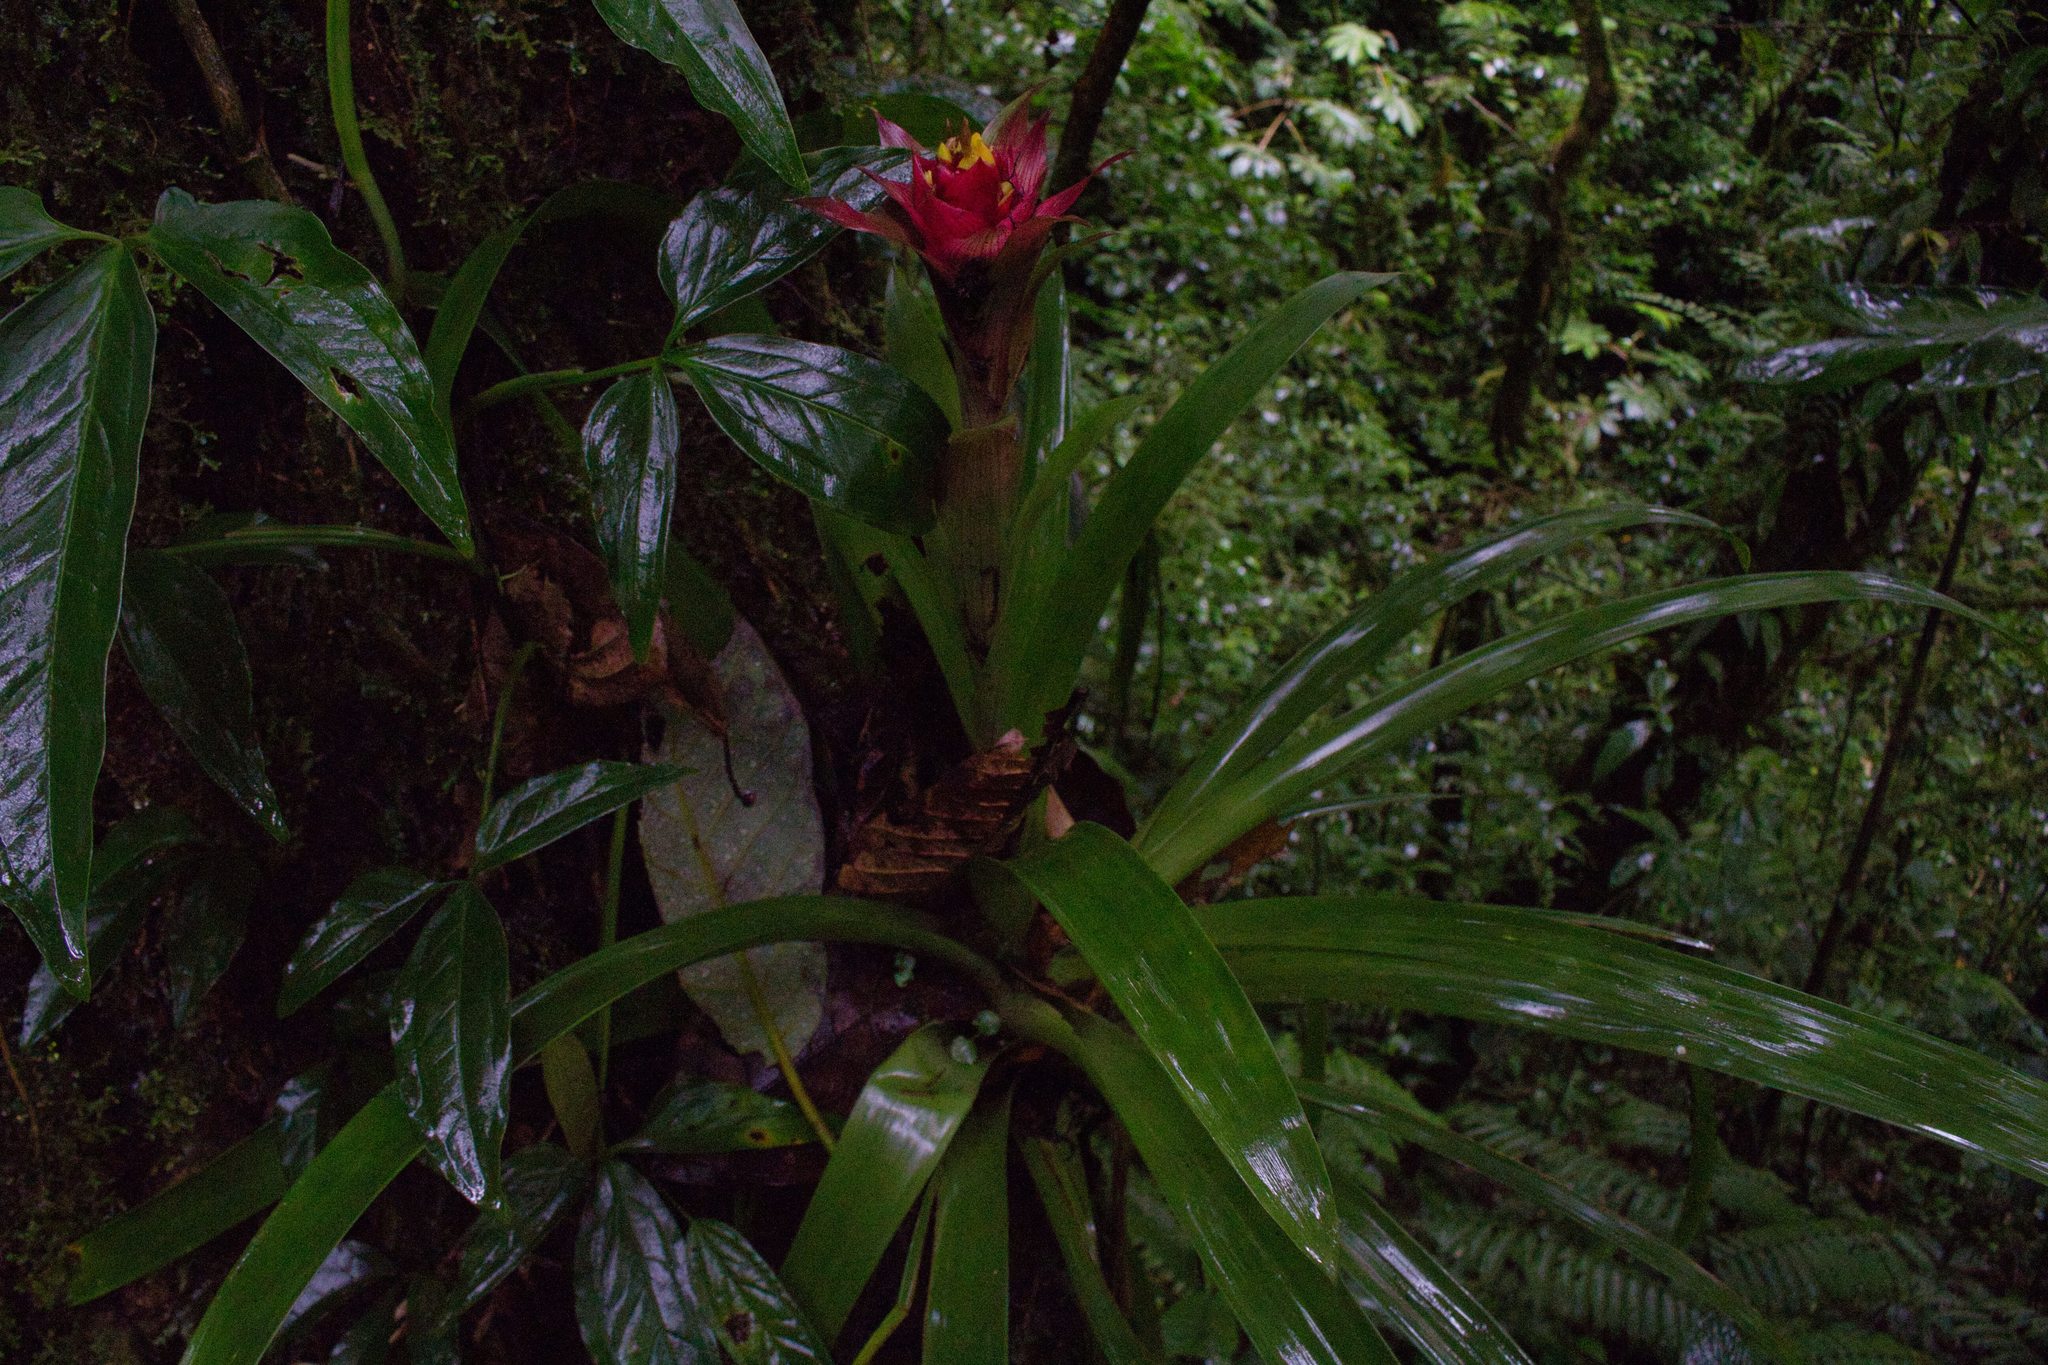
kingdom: Plantae
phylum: Tracheophyta
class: Liliopsida
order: Poales
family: Bromeliaceae
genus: Guzmania
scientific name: Guzmania lingulata
